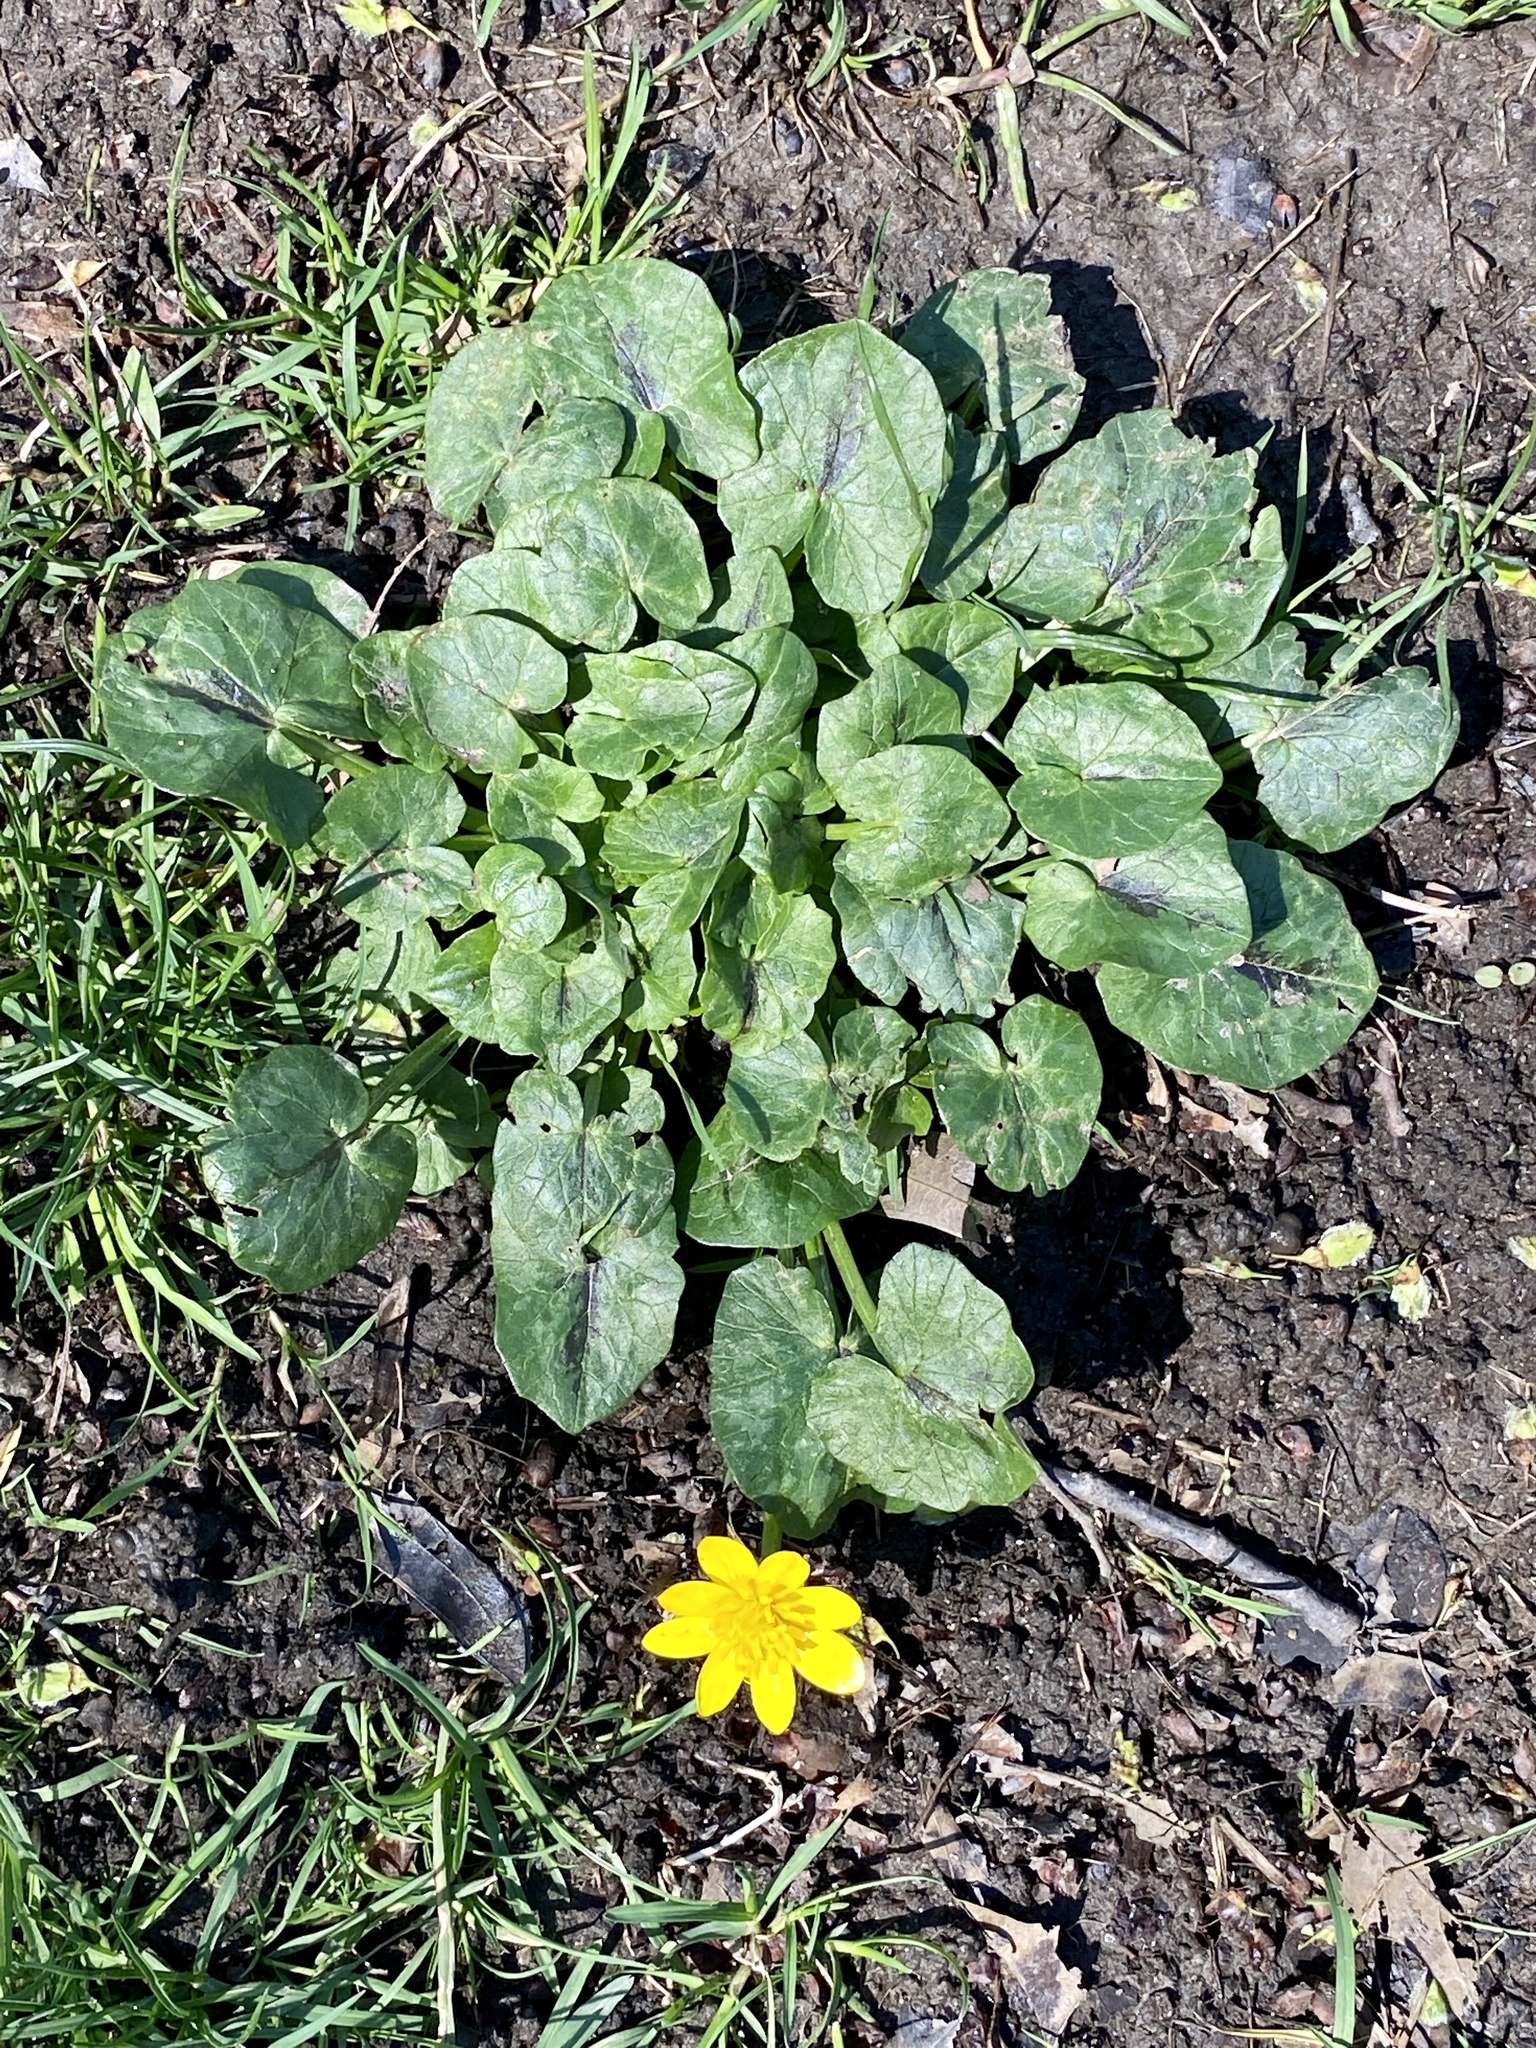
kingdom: Plantae
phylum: Tracheophyta
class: Magnoliopsida
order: Ranunculales
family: Ranunculaceae
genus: Ficaria
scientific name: Ficaria verna
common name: Lesser celandine
